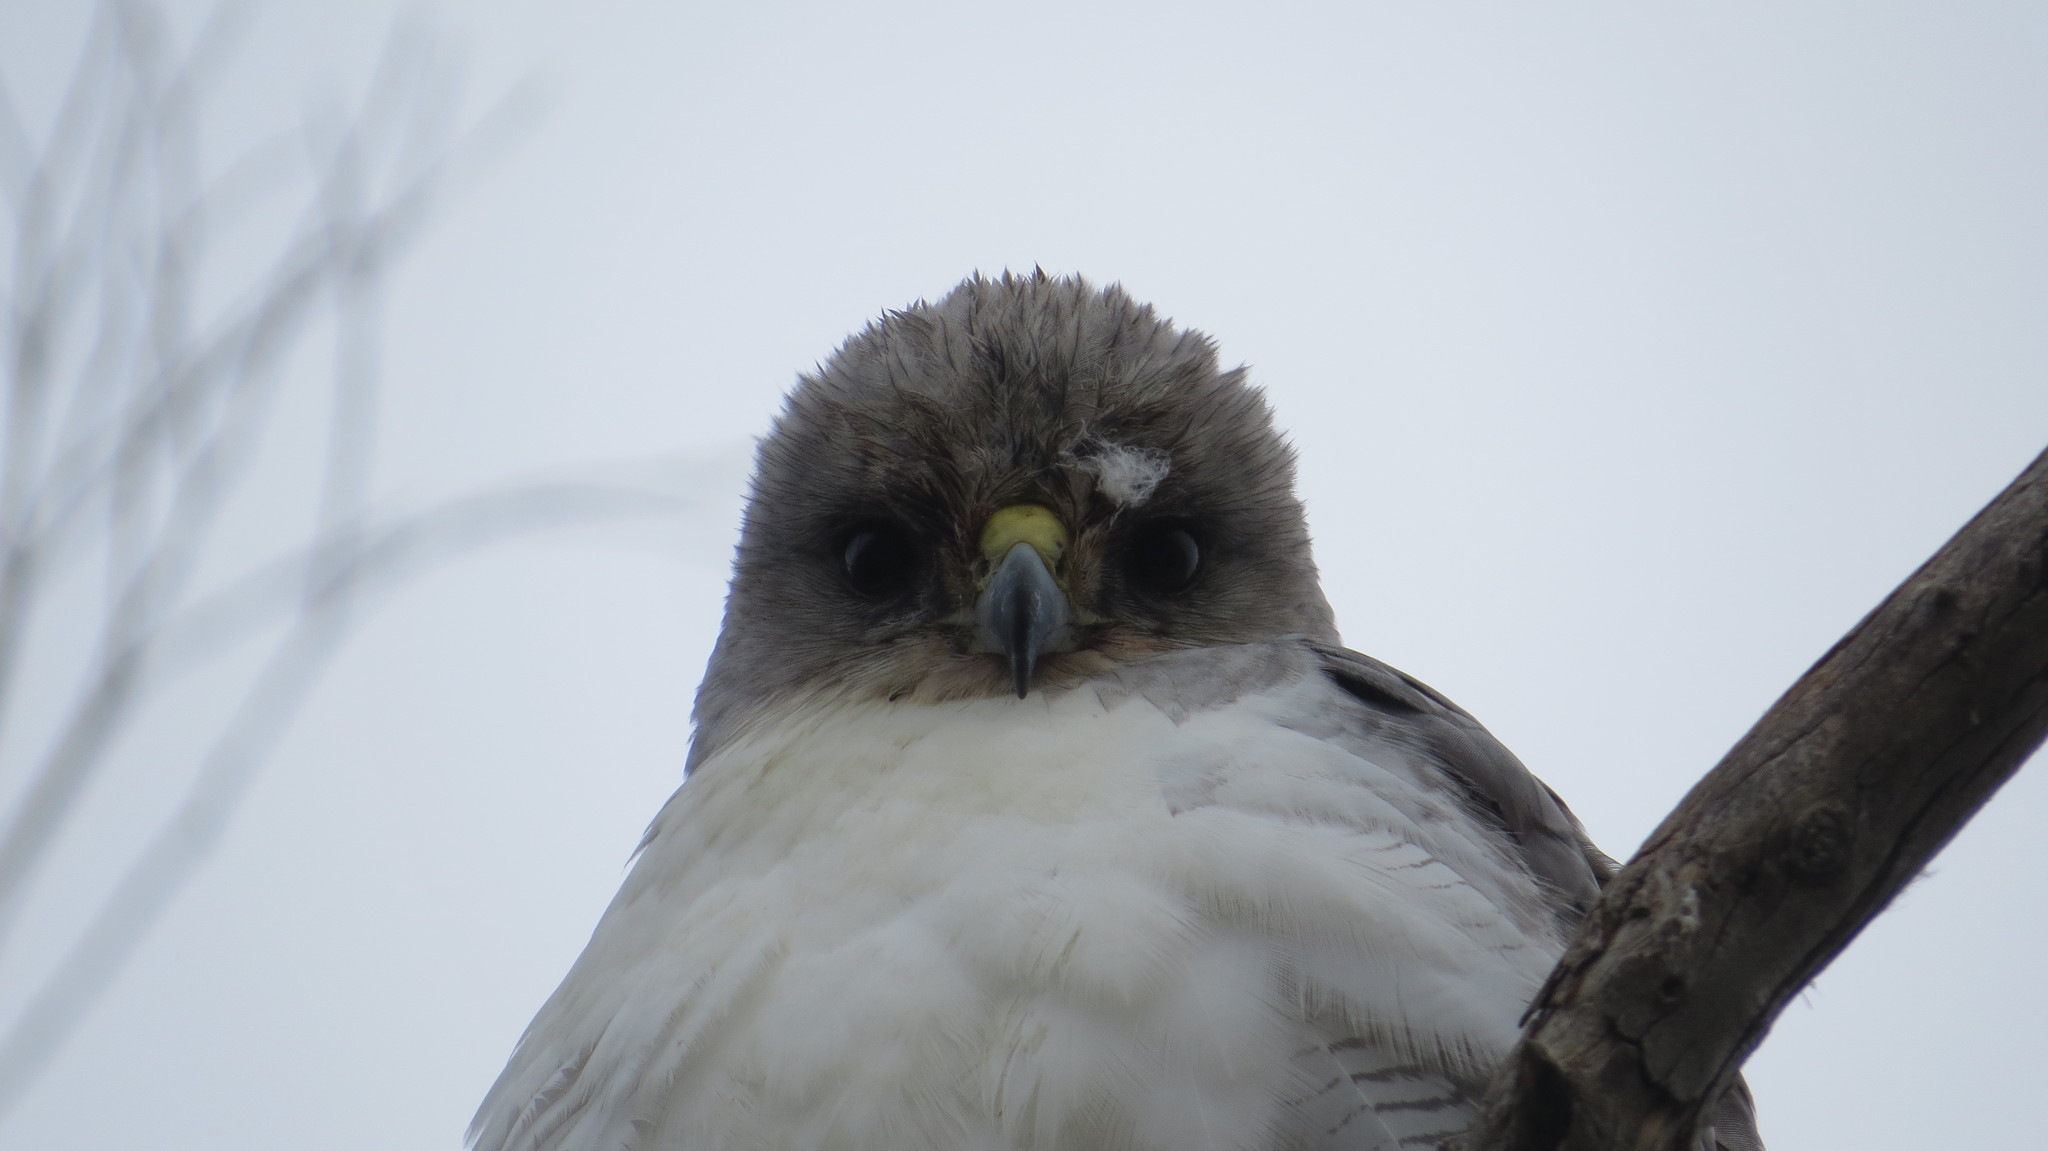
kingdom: Animalia
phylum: Chordata
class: Aves
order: Accipitriformes
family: Accipitridae
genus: Buteo
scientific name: Buteo polyosoma
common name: Variable hawk
